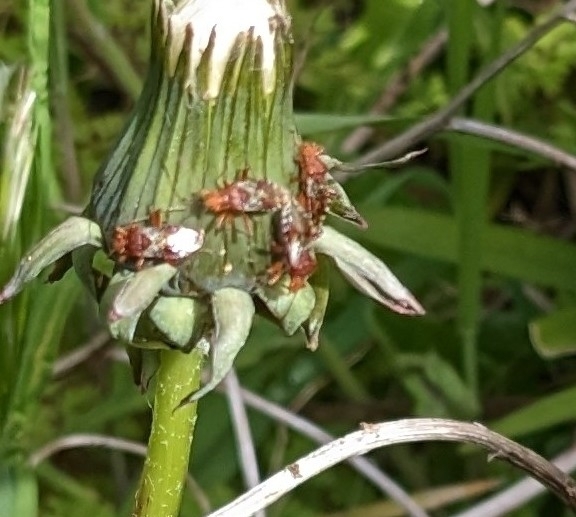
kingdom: Animalia
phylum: Arthropoda
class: Insecta
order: Hemiptera
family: Rhopalidae
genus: Rhopalus
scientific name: Rhopalus subrufus
